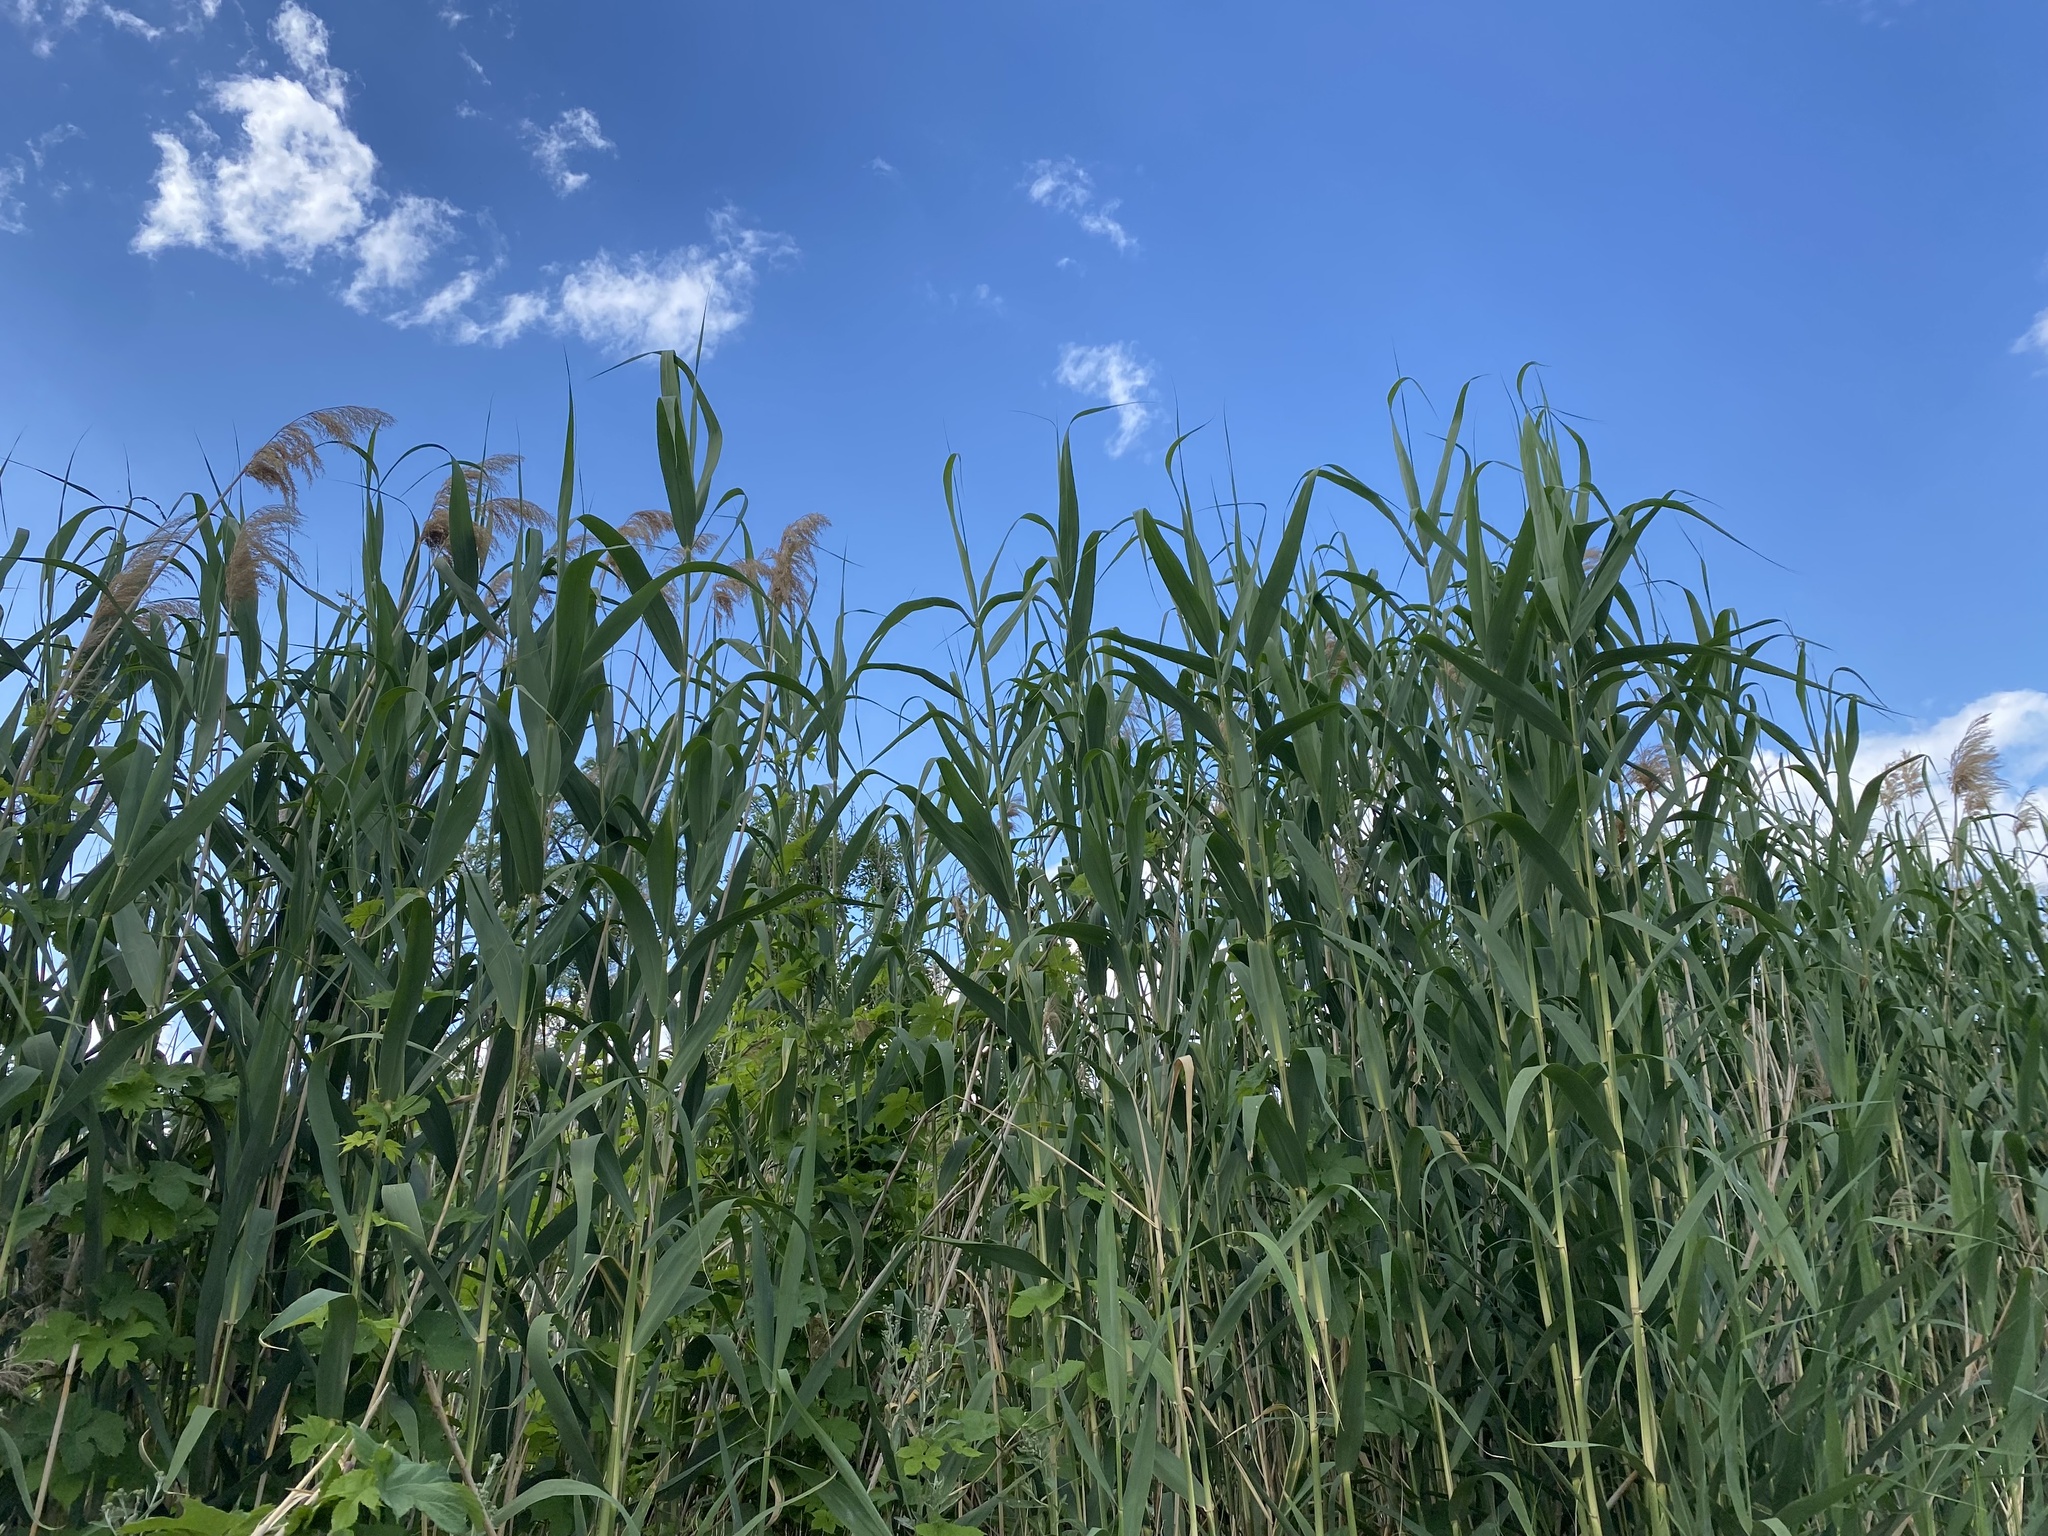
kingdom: Plantae
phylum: Tracheophyta
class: Liliopsida
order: Poales
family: Poaceae
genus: Phragmites
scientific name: Phragmites australis
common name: Common reed
